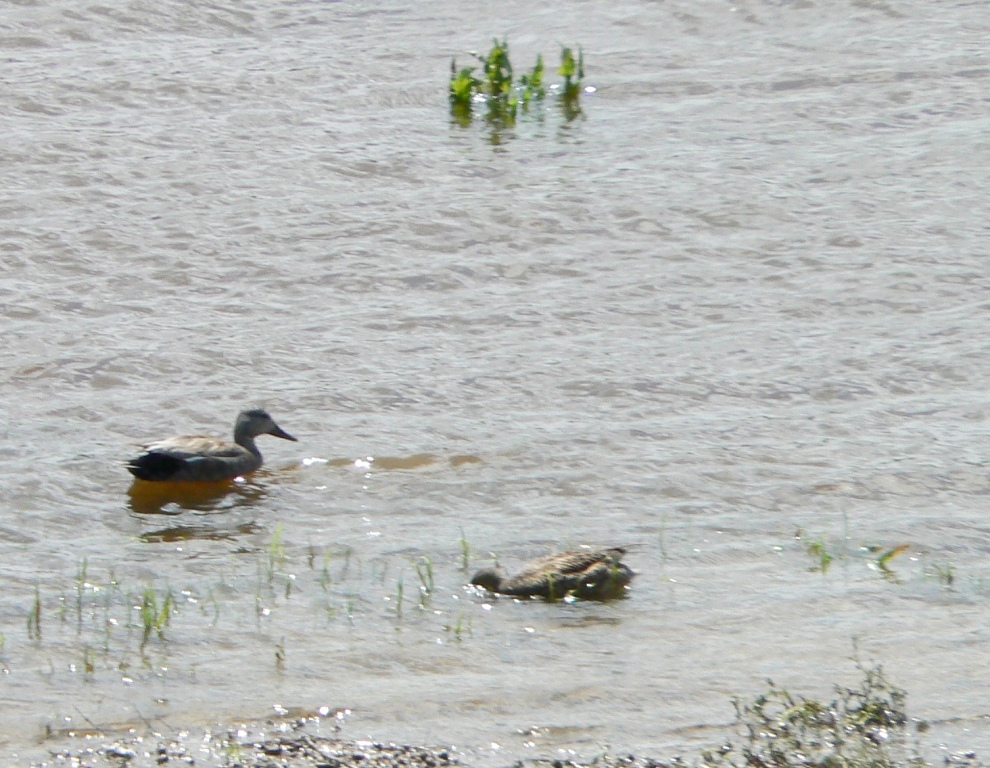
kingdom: Animalia
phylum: Chordata
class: Aves
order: Anseriformes
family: Anatidae
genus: Mareca
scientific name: Mareca strepera
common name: Gadwall
